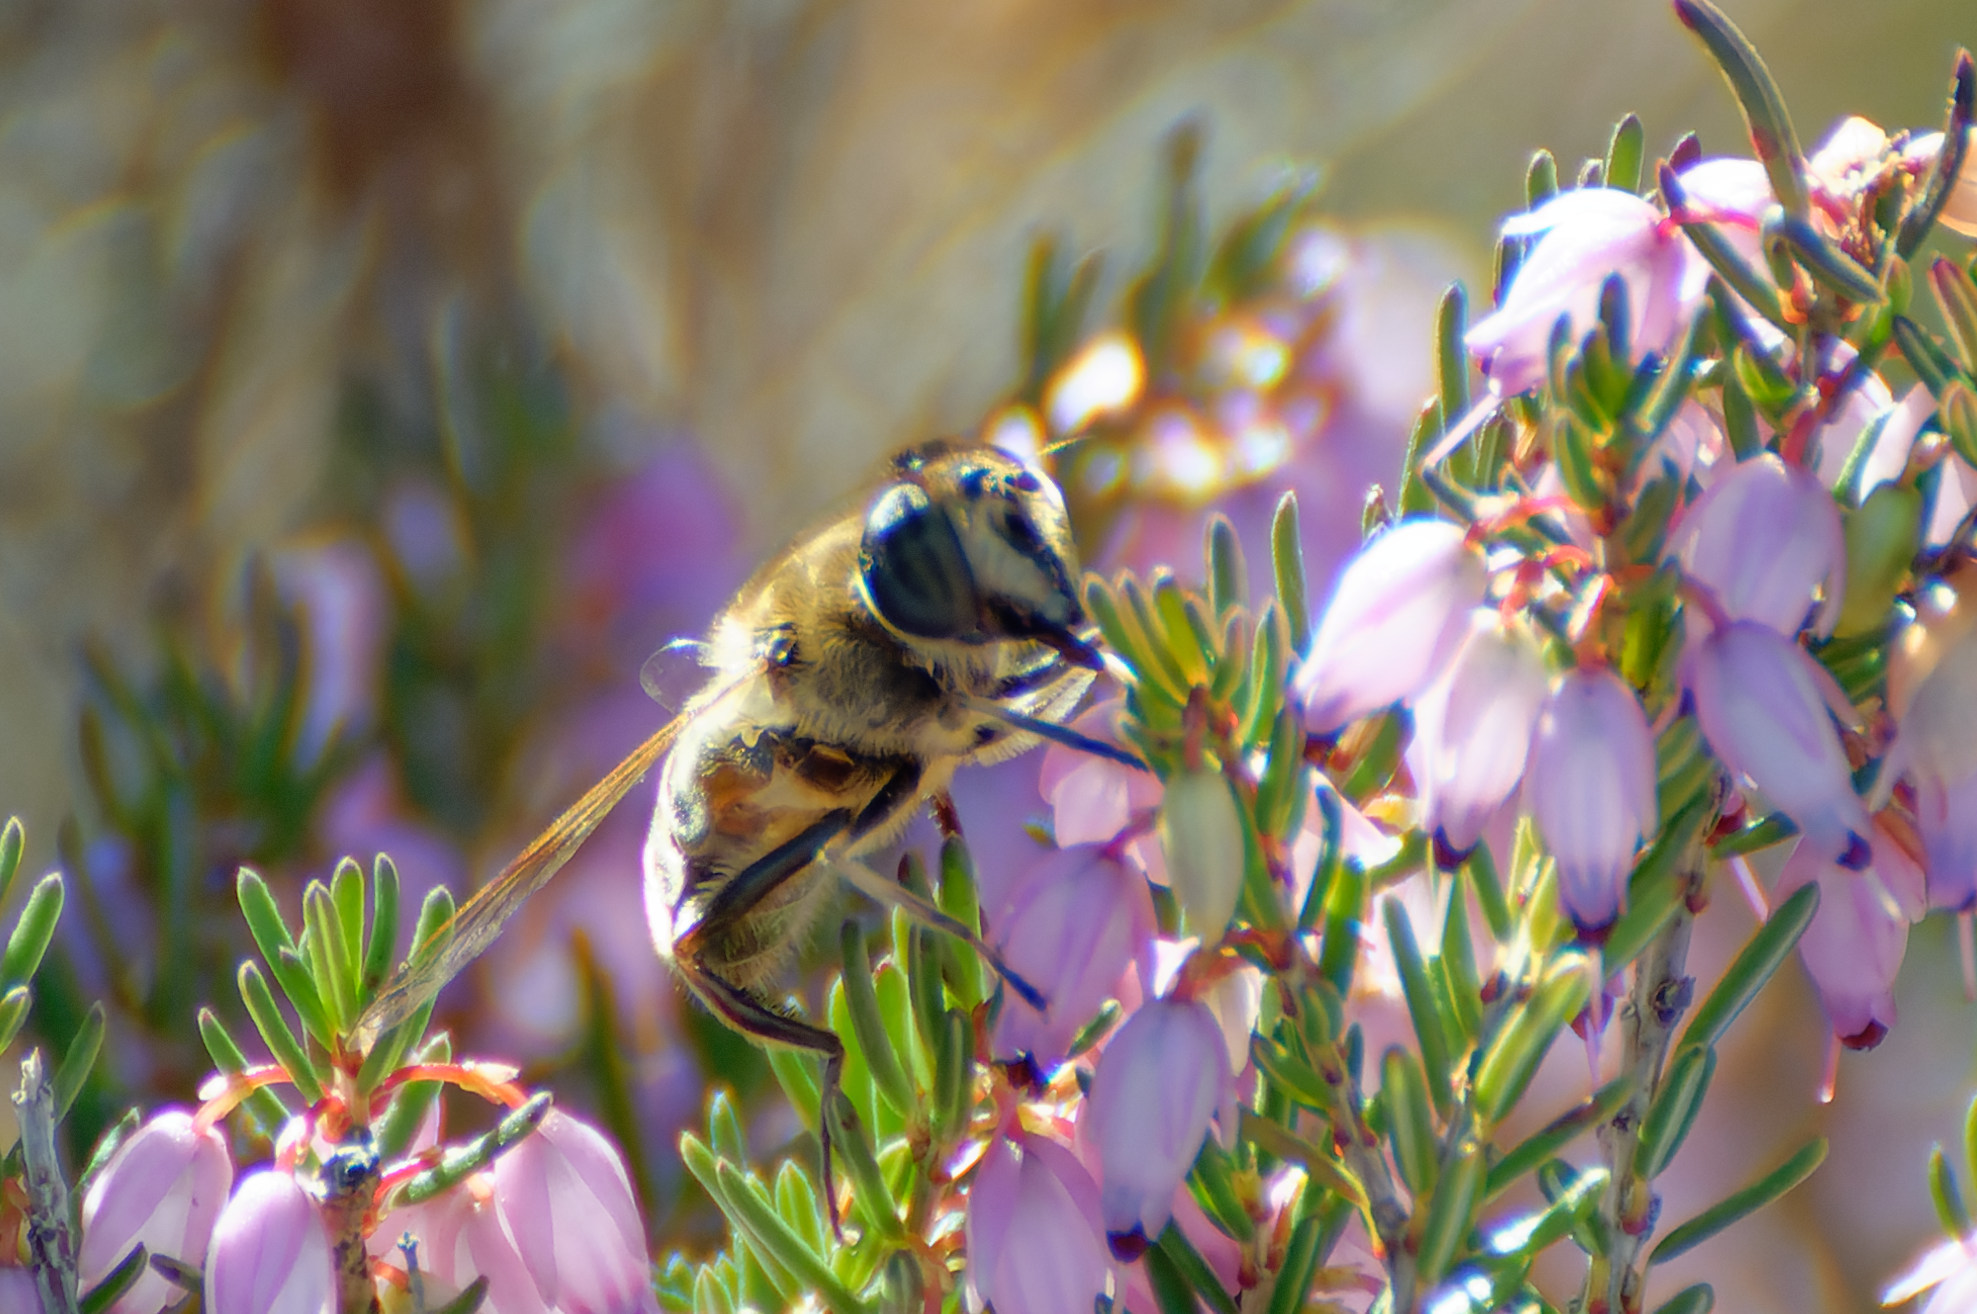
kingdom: Animalia
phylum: Arthropoda
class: Insecta
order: Diptera
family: Syrphidae
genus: Eristalis
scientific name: Eristalis tenax
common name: Drone fly
